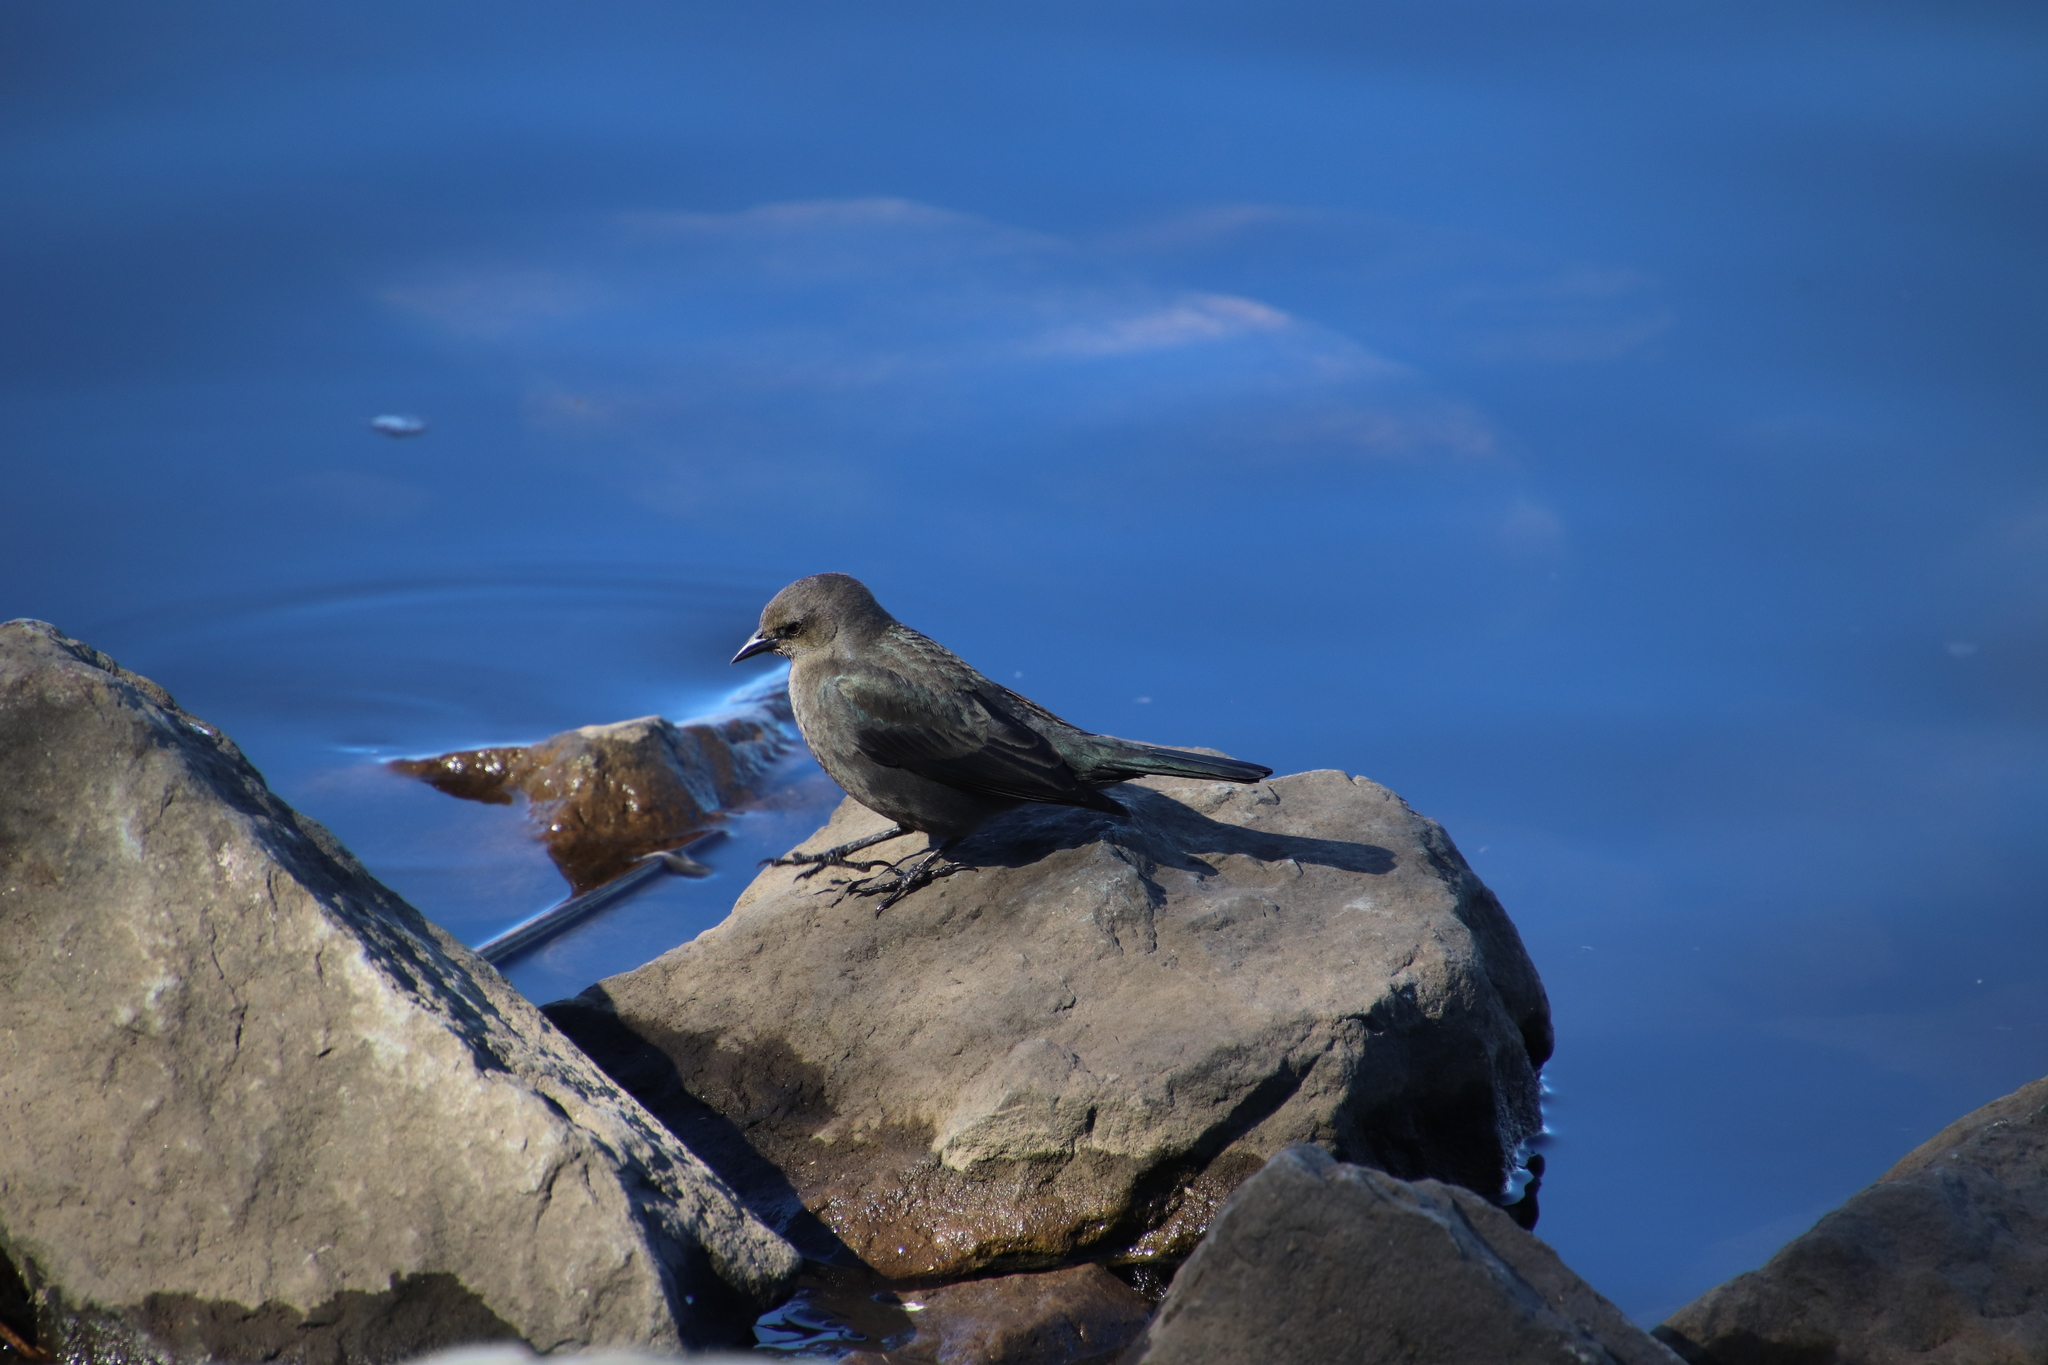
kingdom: Animalia
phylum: Chordata
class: Aves
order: Passeriformes
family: Icteridae
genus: Euphagus
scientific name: Euphagus cyanocephalus
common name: Brewer's blackbird
